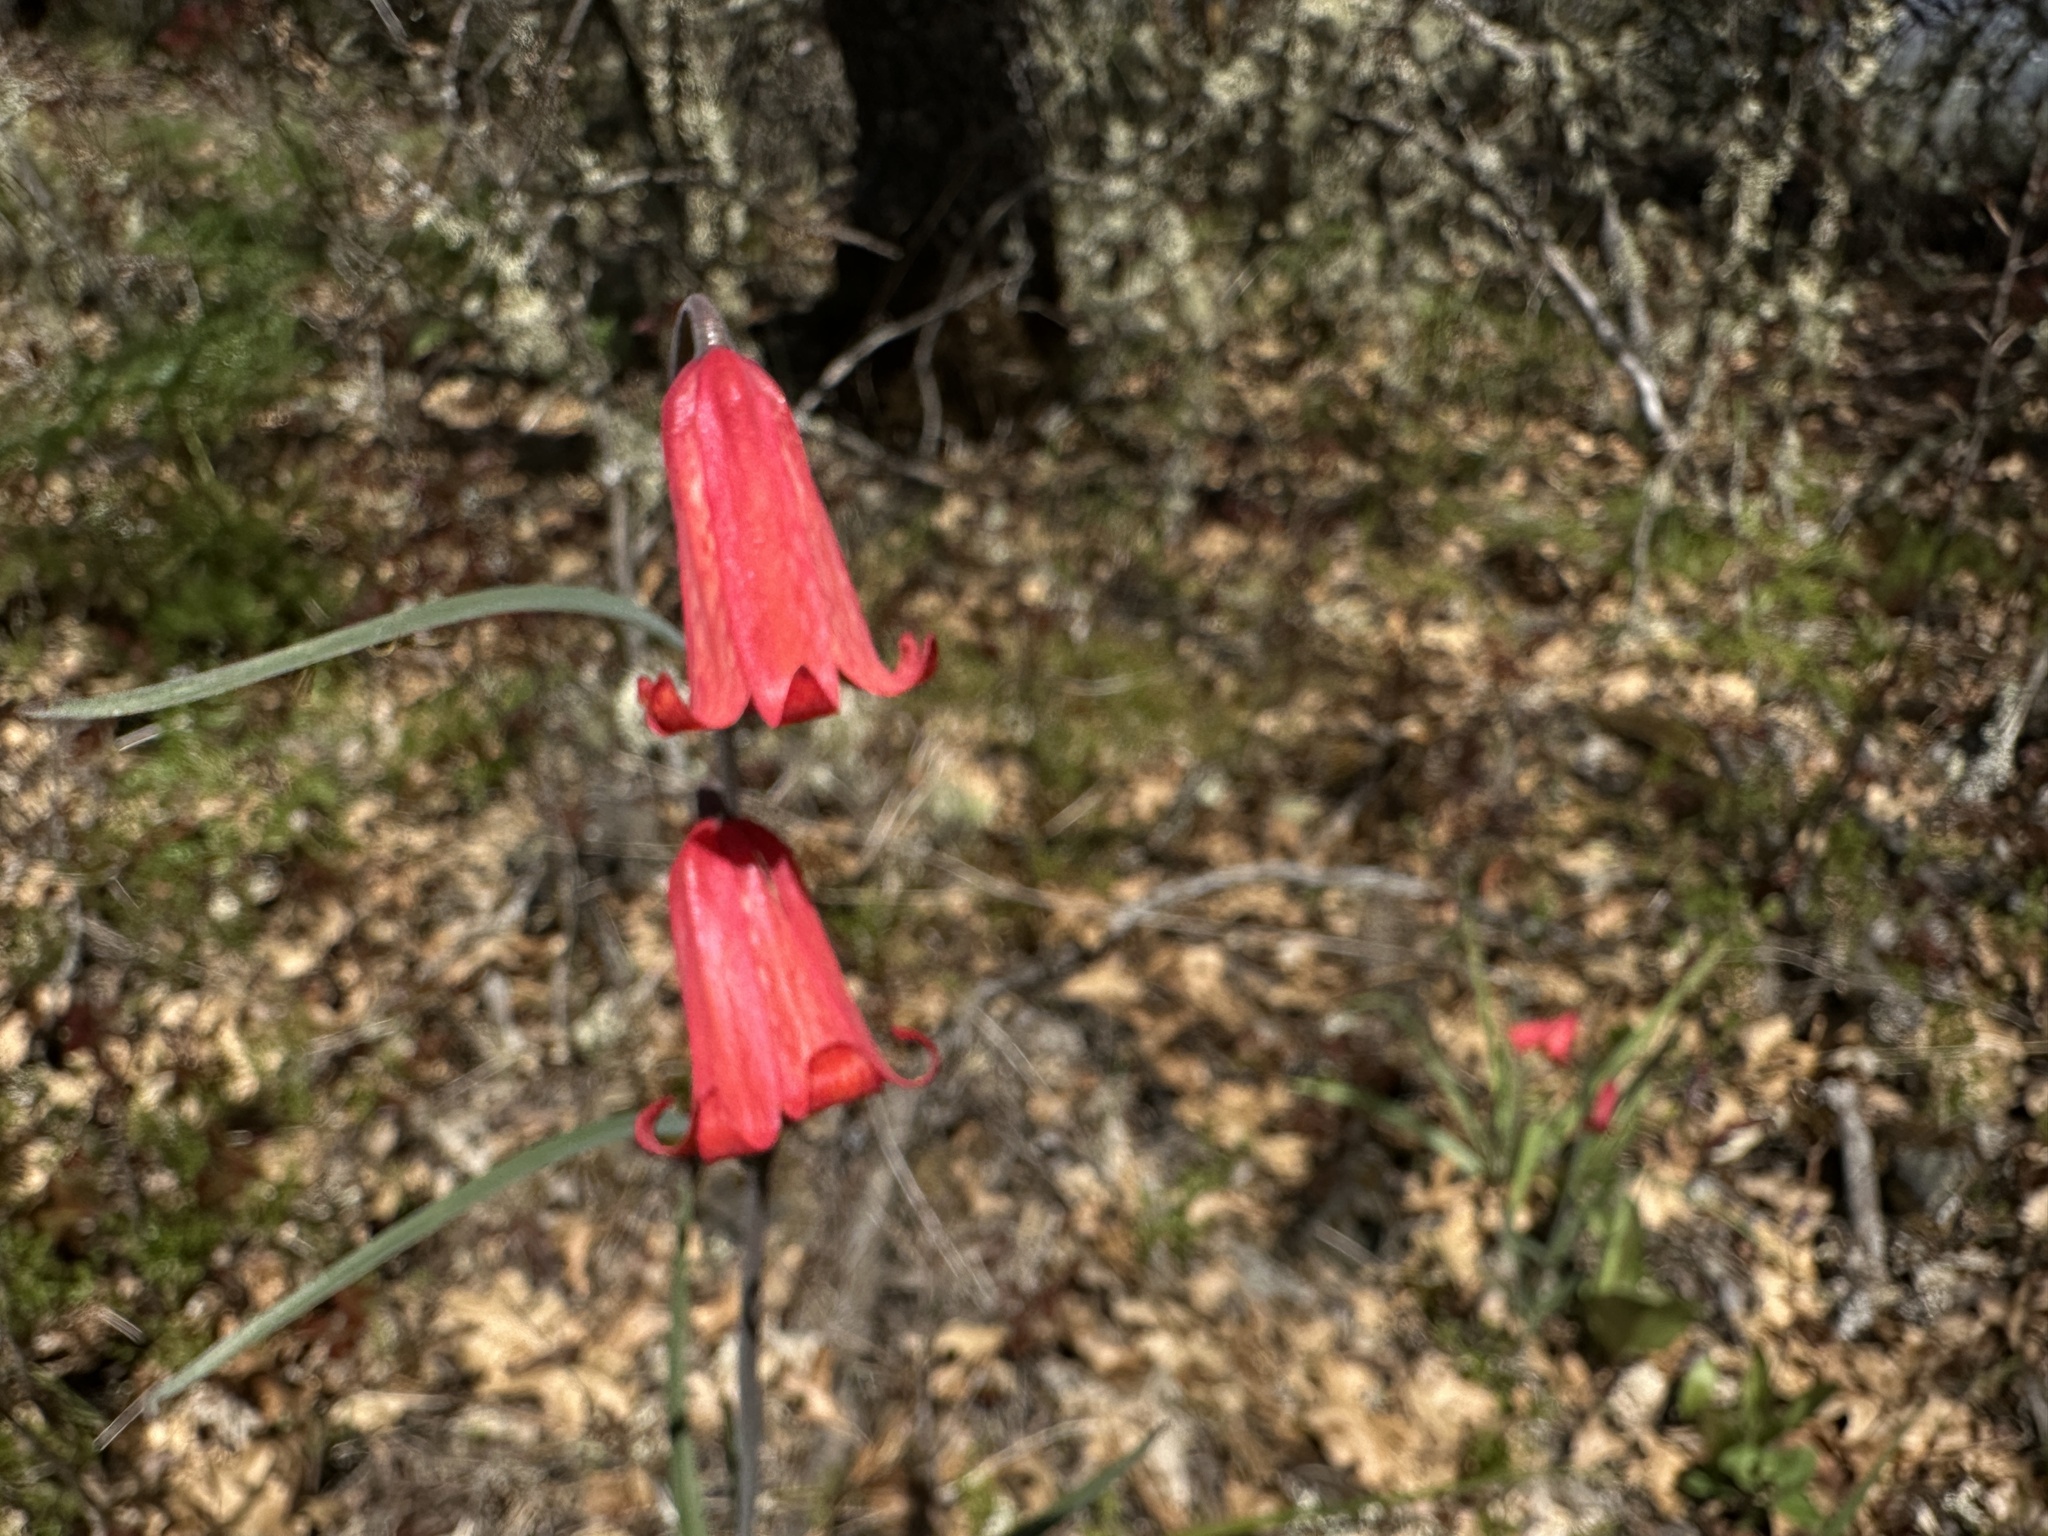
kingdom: Plantae
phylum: Tracheophyta
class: Liliopsida
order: Liliales
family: Liliaceae
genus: Fritillaria
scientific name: Fritillaria recurva
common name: Scarlet fritillary
